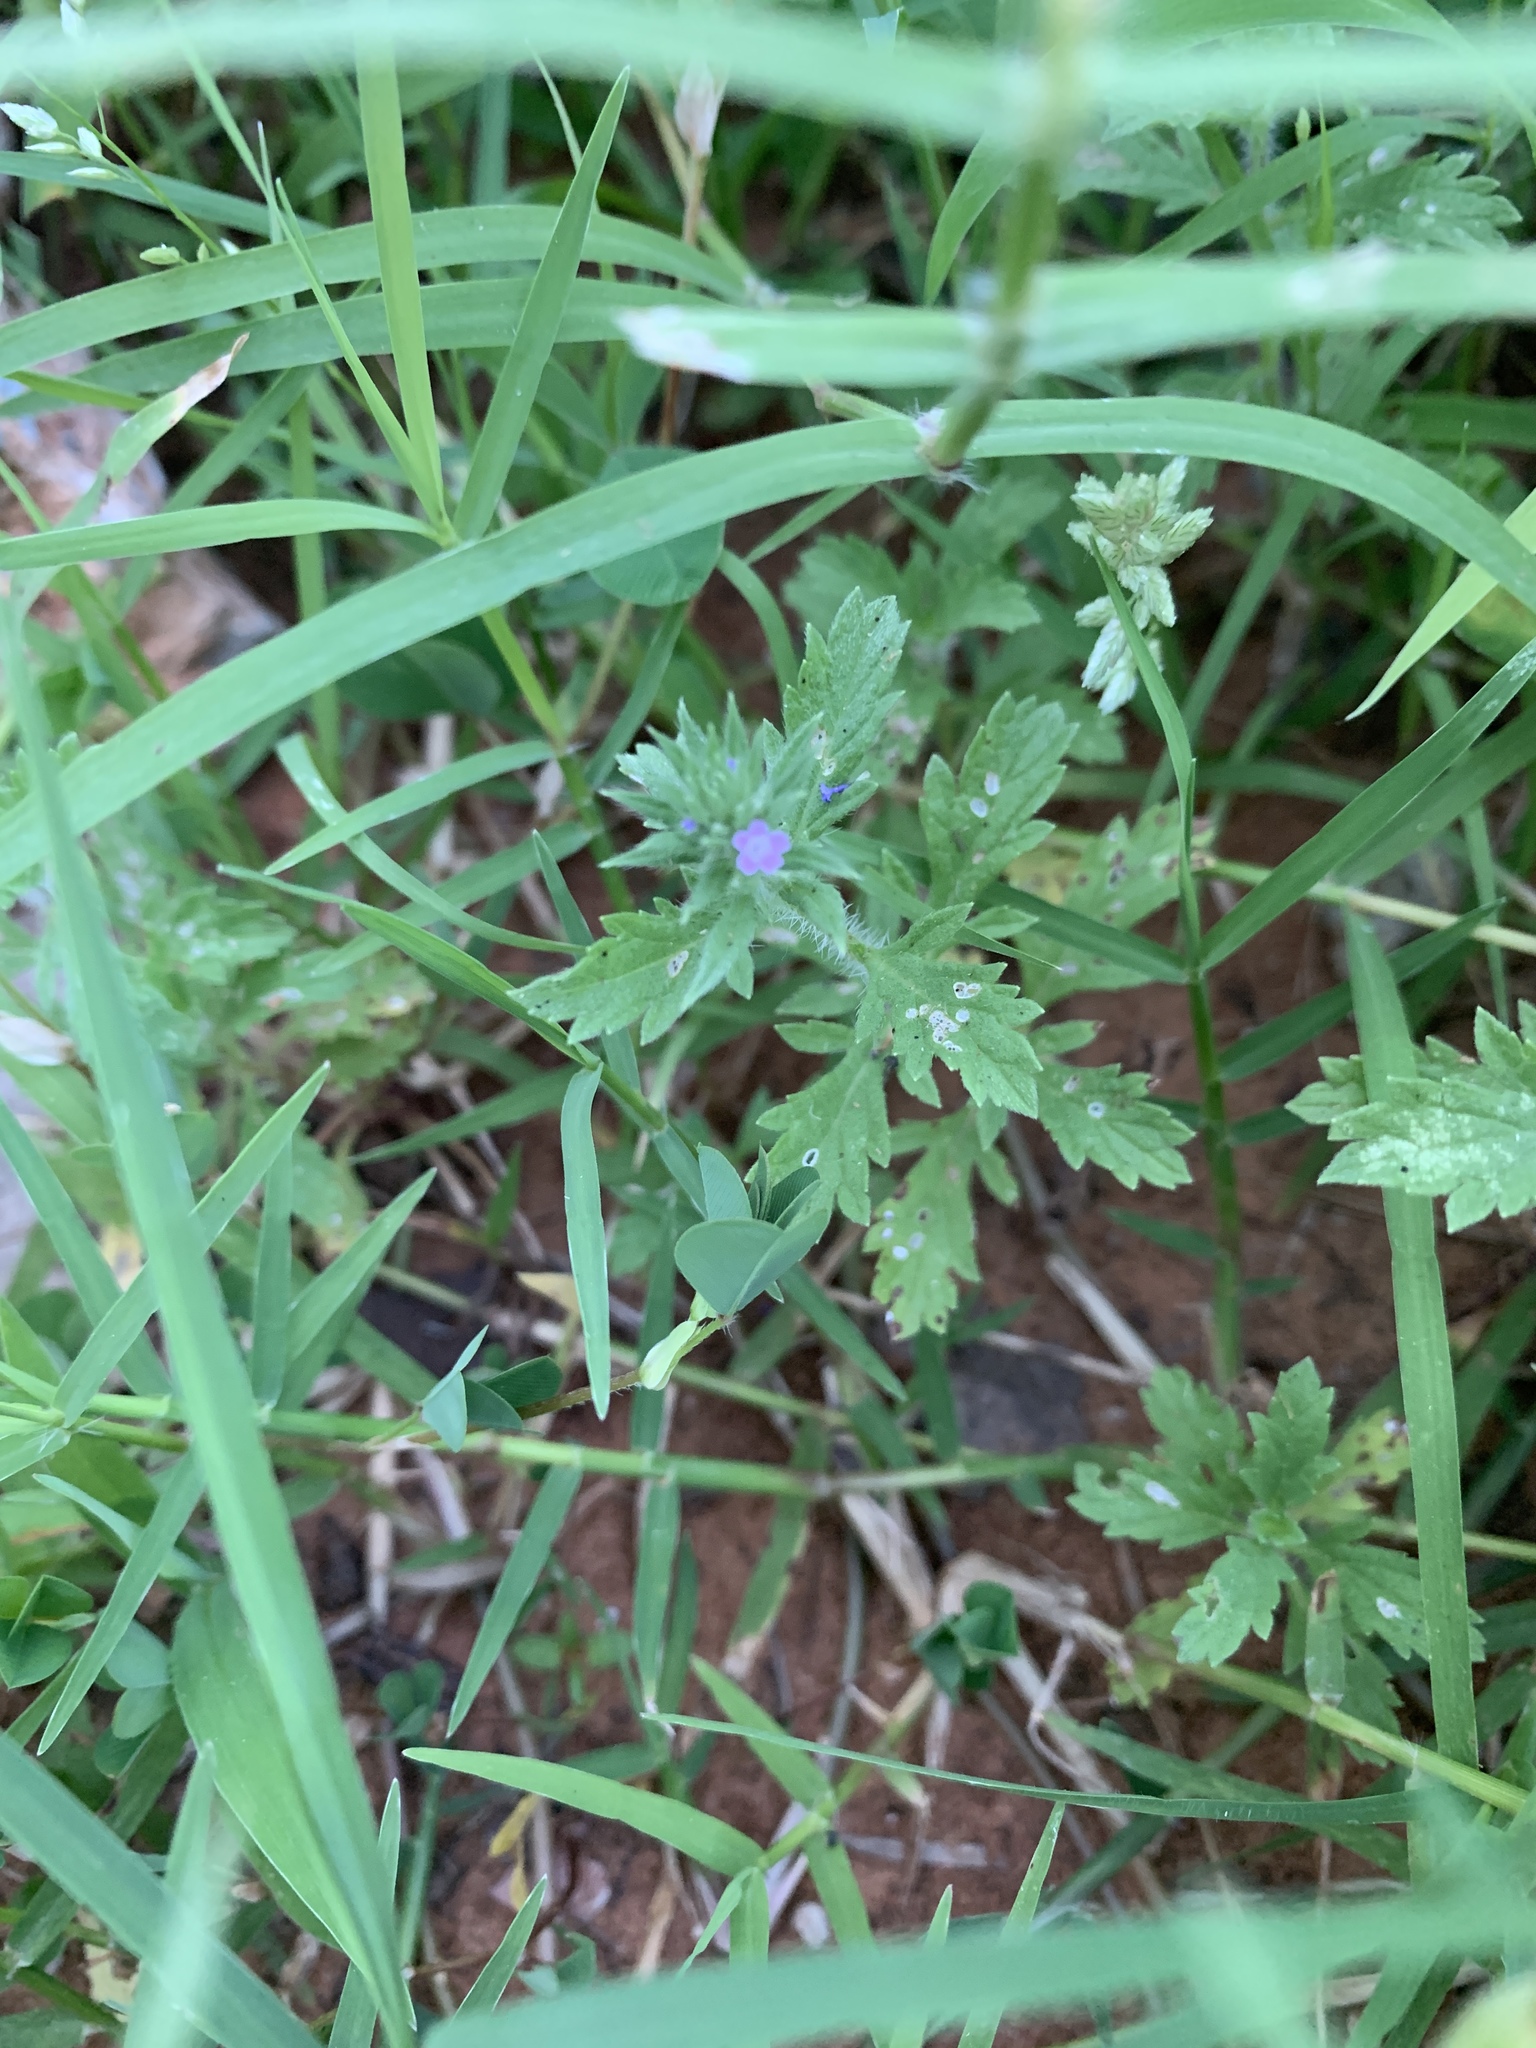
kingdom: Plantae
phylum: Tracheophyta
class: Magnoliopsida
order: Lamiales
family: Verbenaceae
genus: Verbena
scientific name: Verbena bracteata
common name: Bracted vervain
